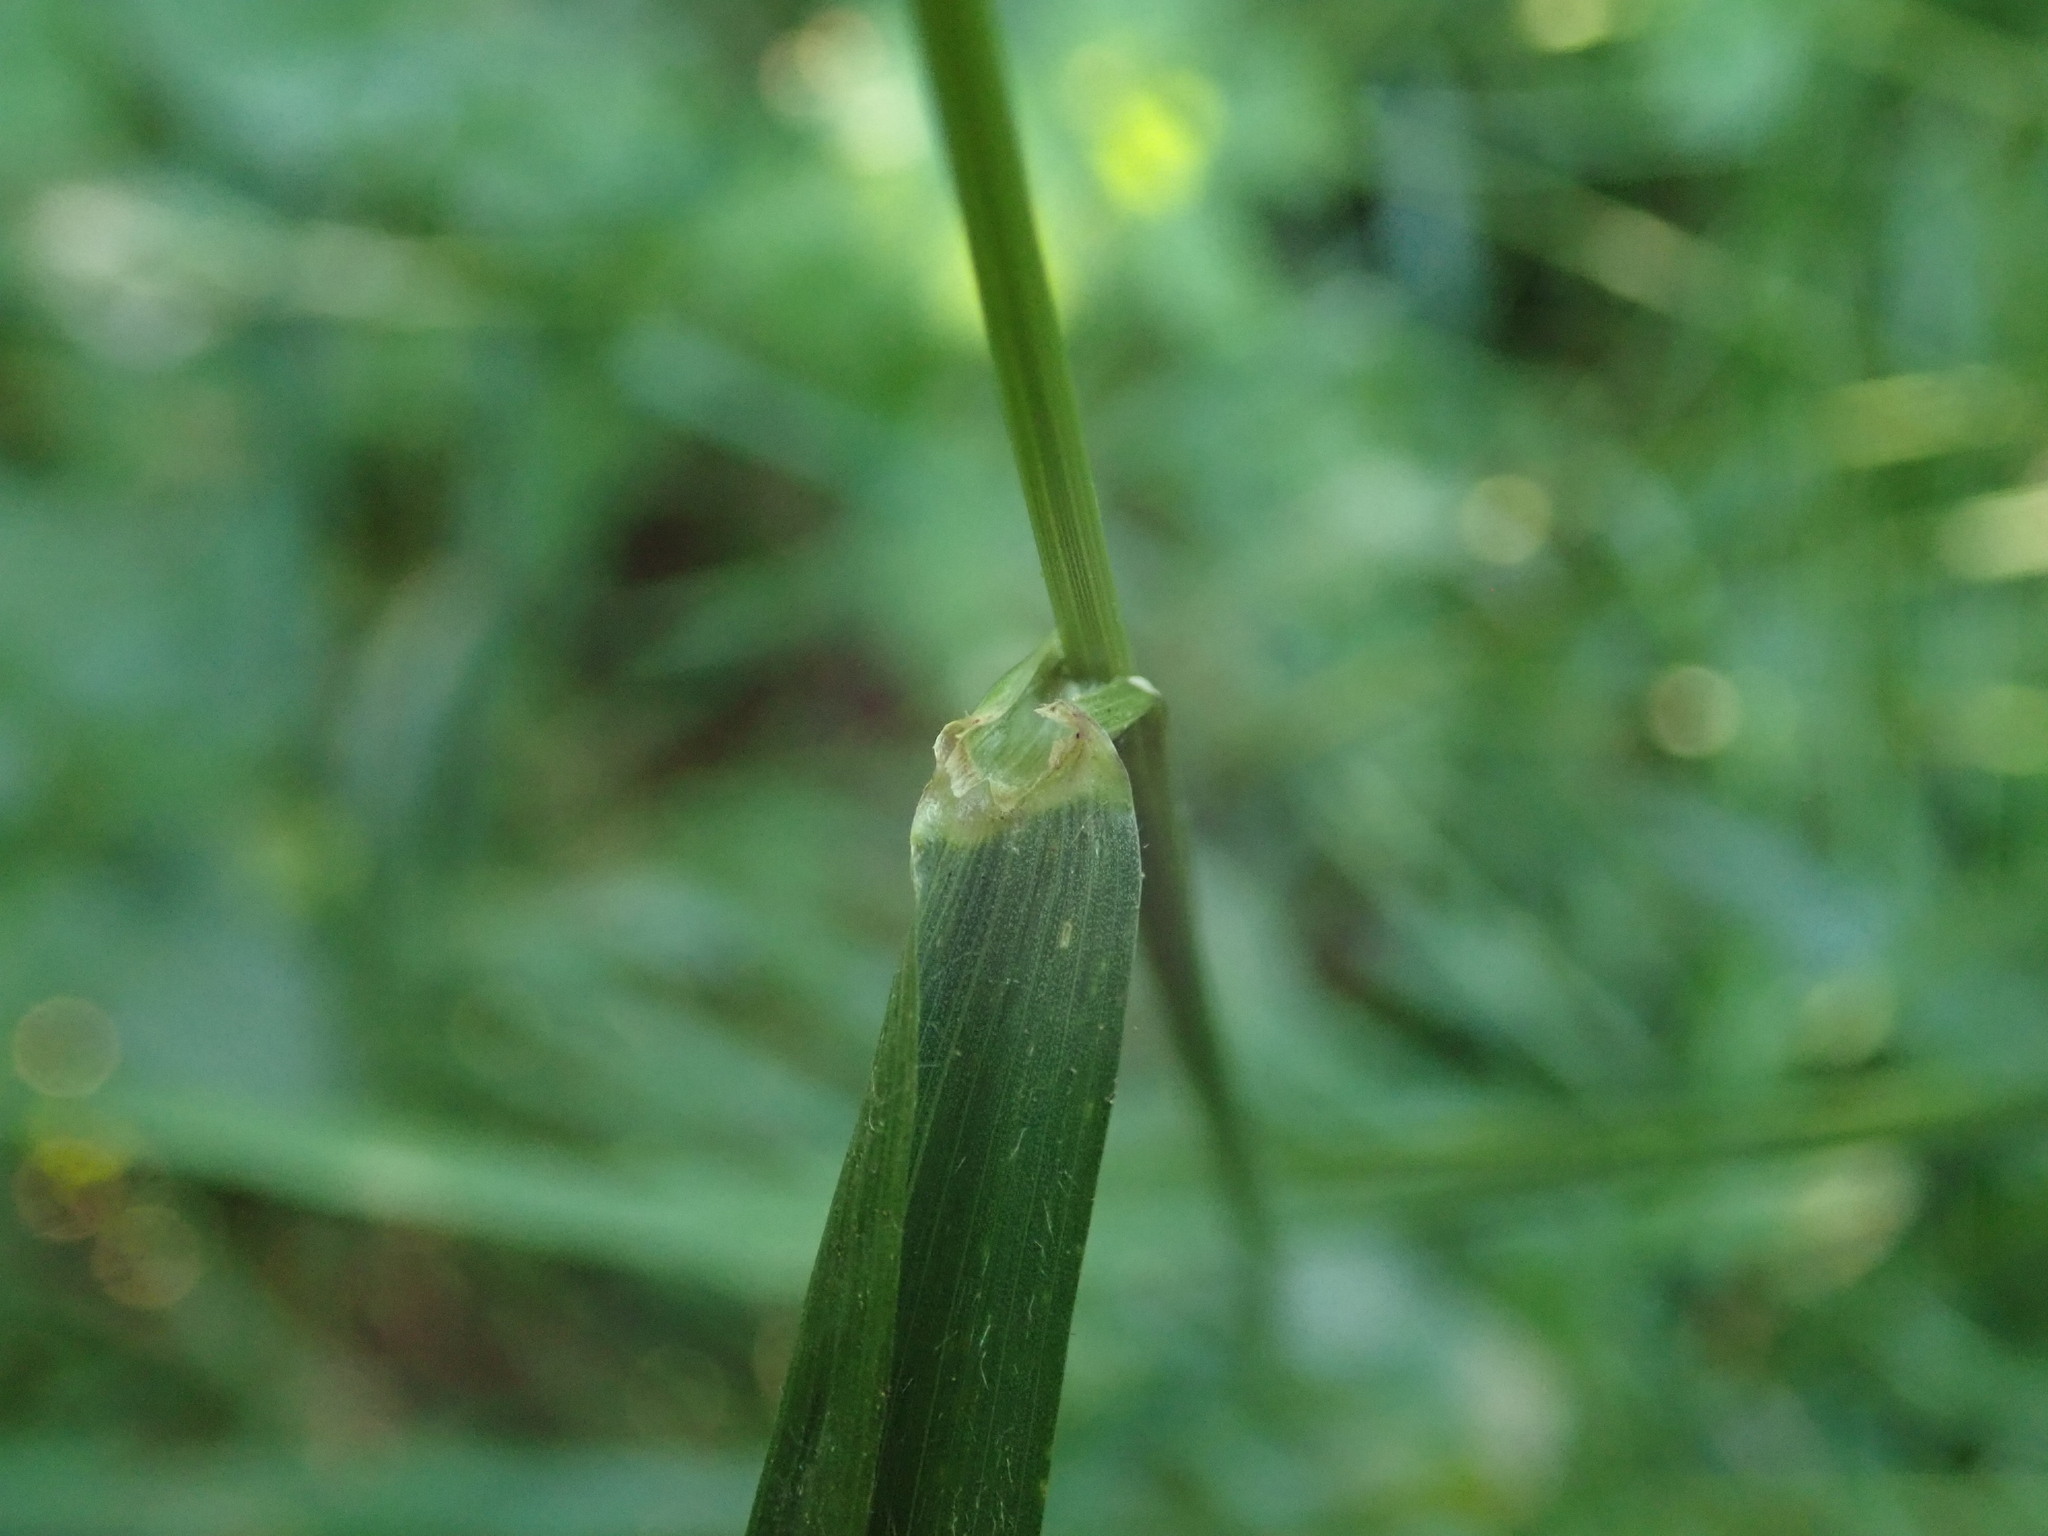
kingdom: Plantae
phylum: Tracheophyta
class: Liliopsida
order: Poales
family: Poaceae
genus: Elymus
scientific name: Elymus caninus
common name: Bearded couch
